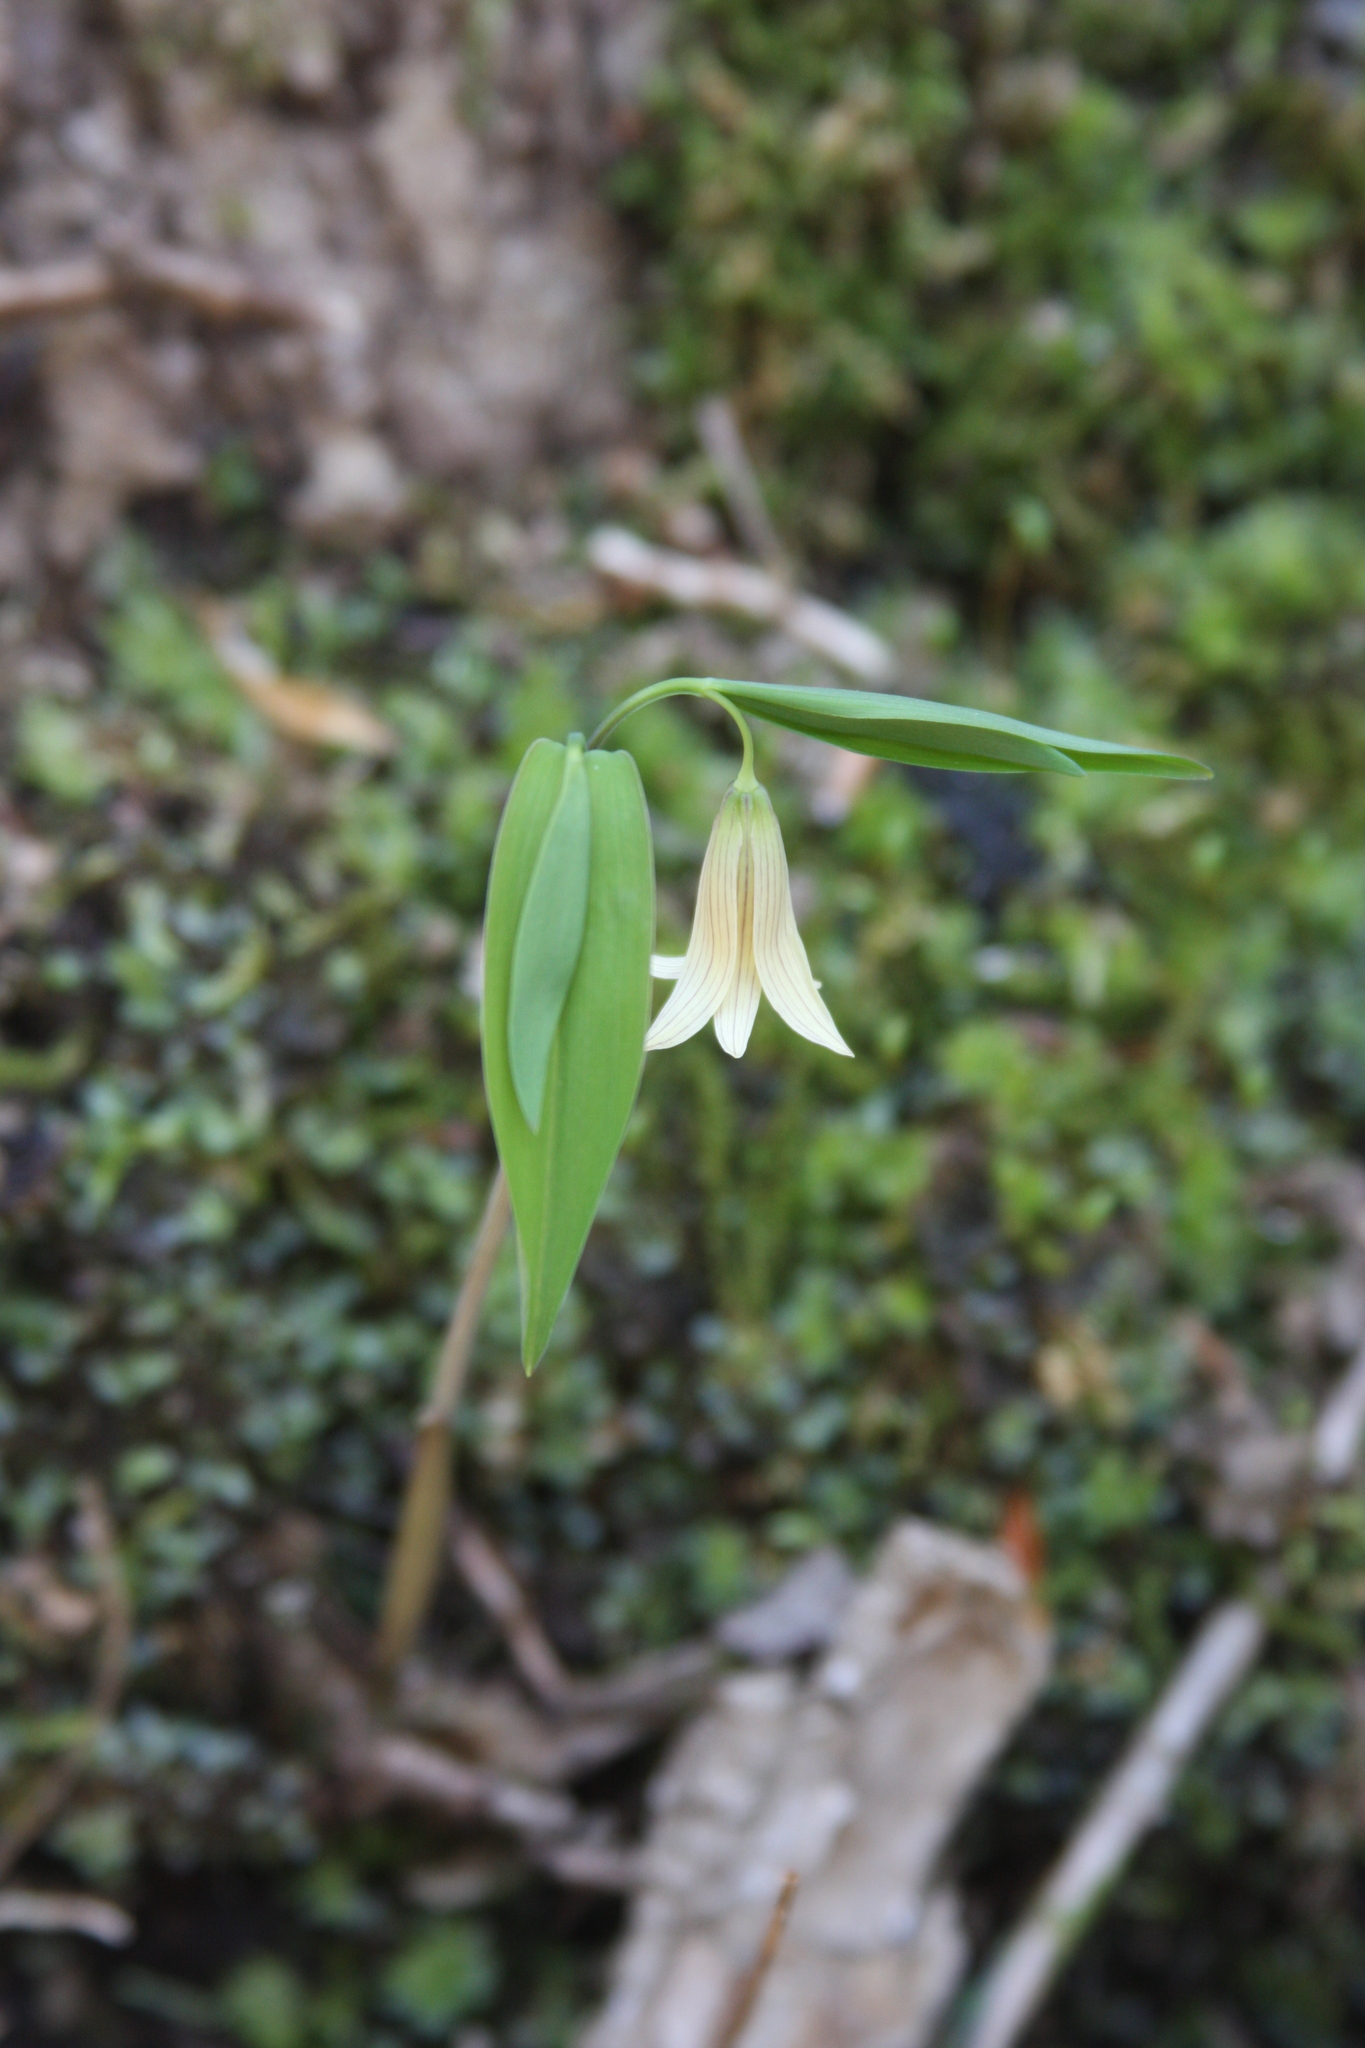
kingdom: Plantae
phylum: Tracheophyta
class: Liliopsida
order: Liliales
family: Colchicaceae
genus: Uvularia
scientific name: Uvularia sessilifolia
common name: Straw-lily
